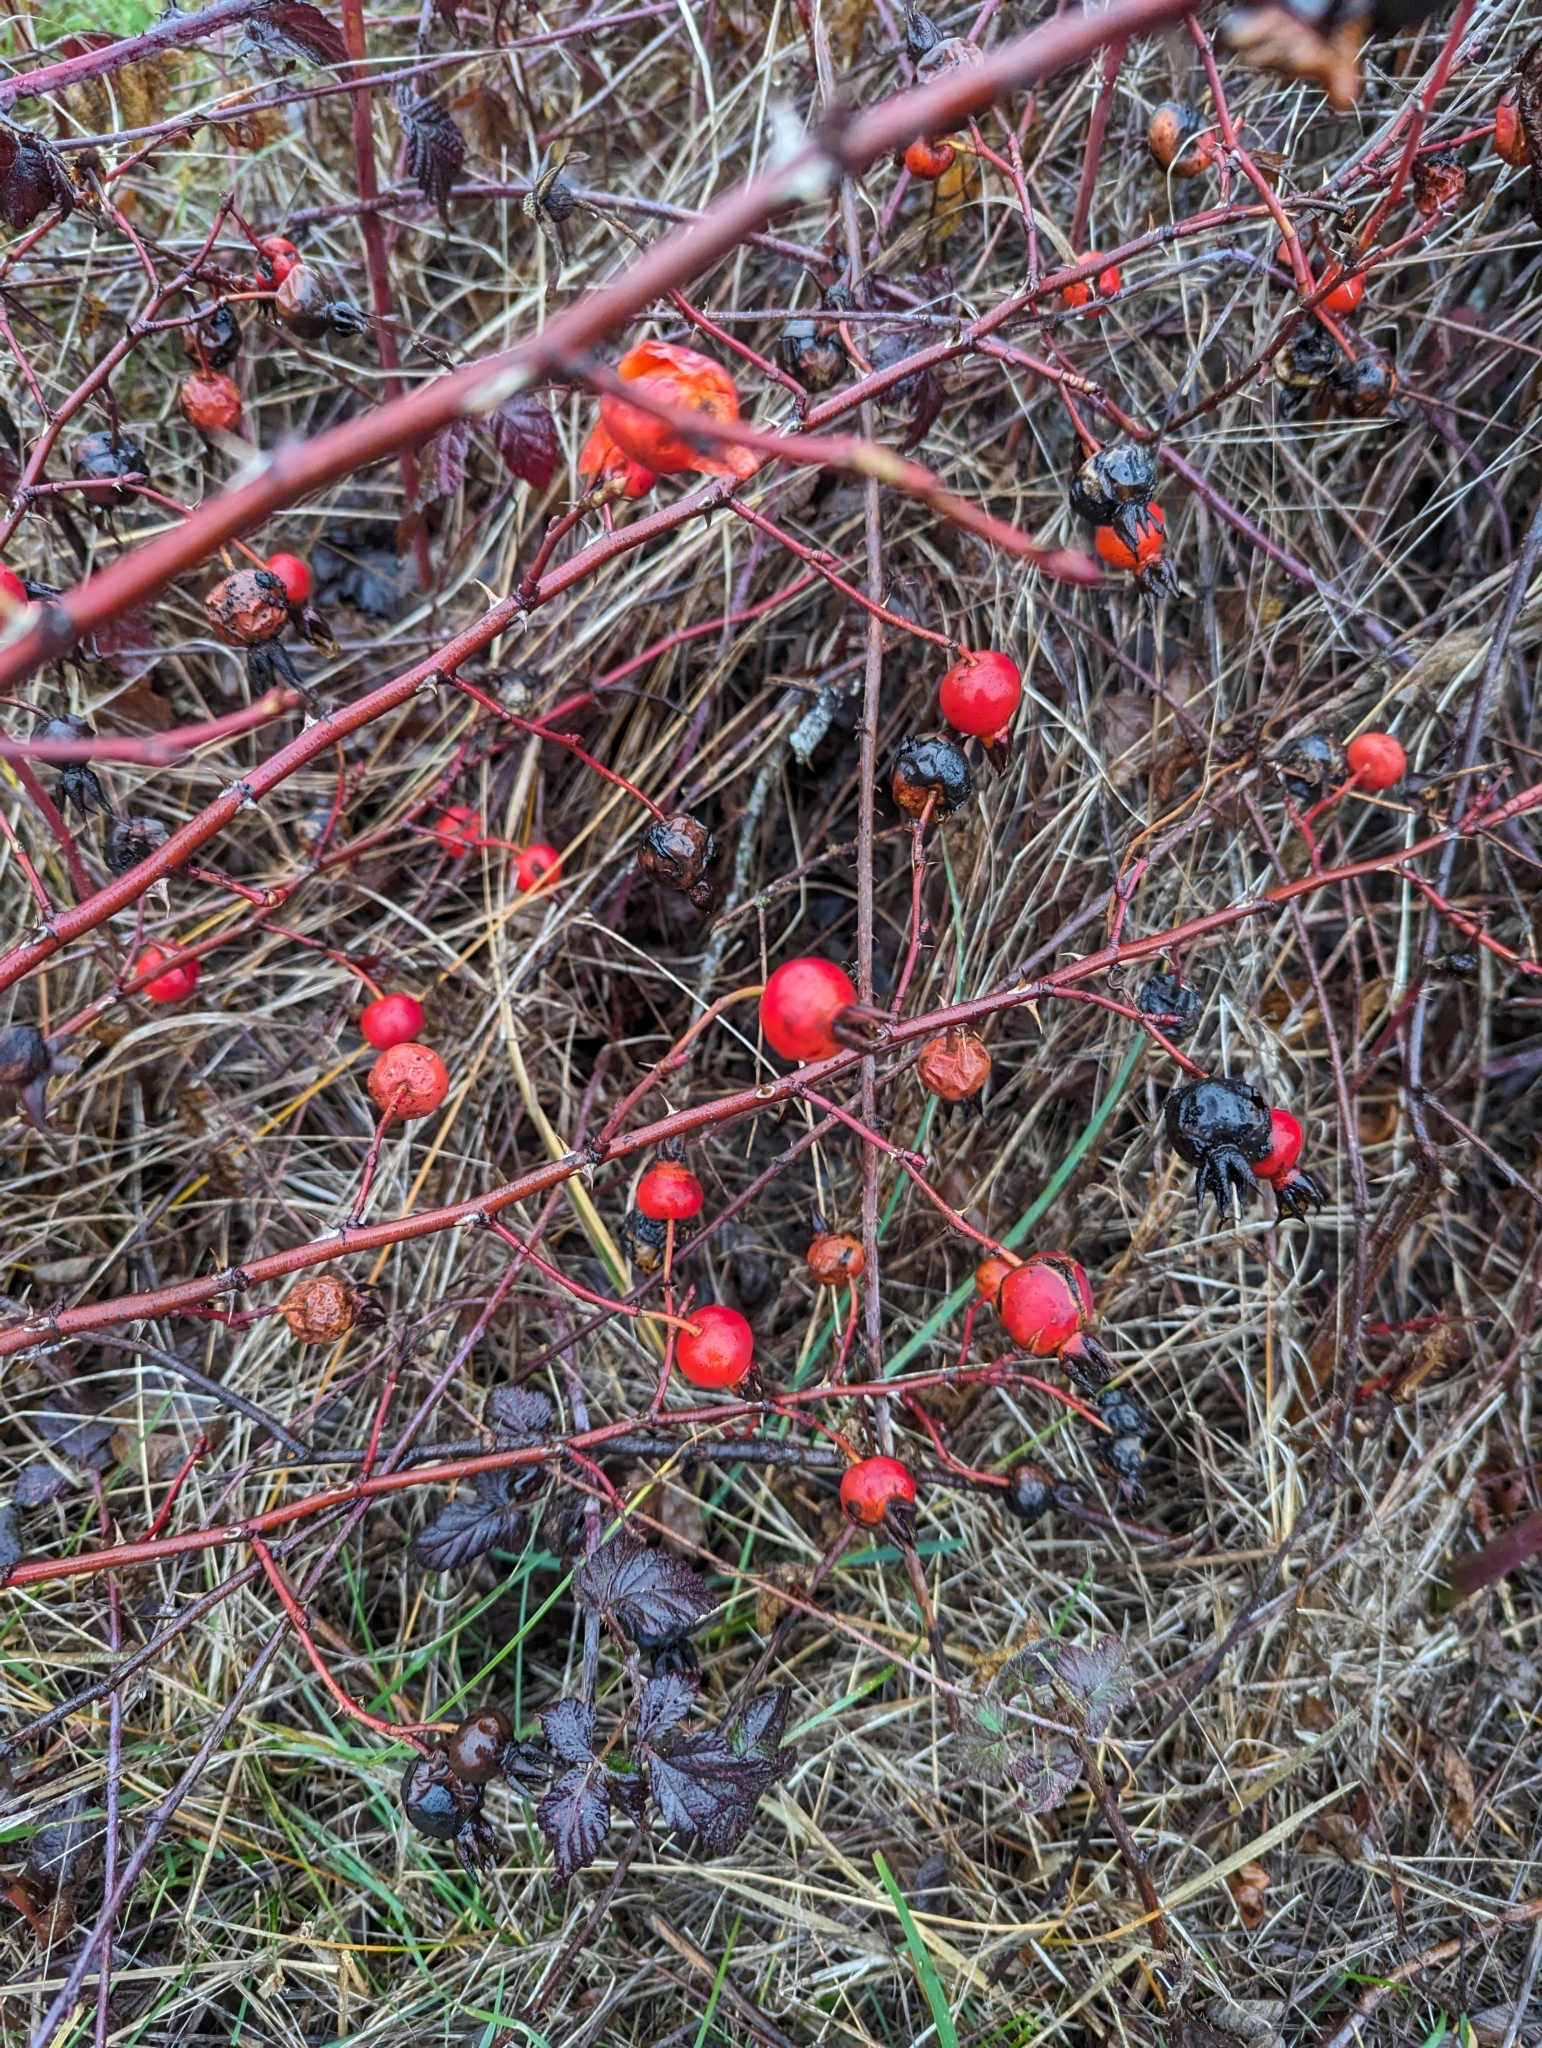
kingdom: Plantae
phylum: Tracheophyta
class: Magnoliopsida
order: Rosales
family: Rosaceae
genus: Rosa
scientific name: Rosa nutkana
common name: Nootka rose
